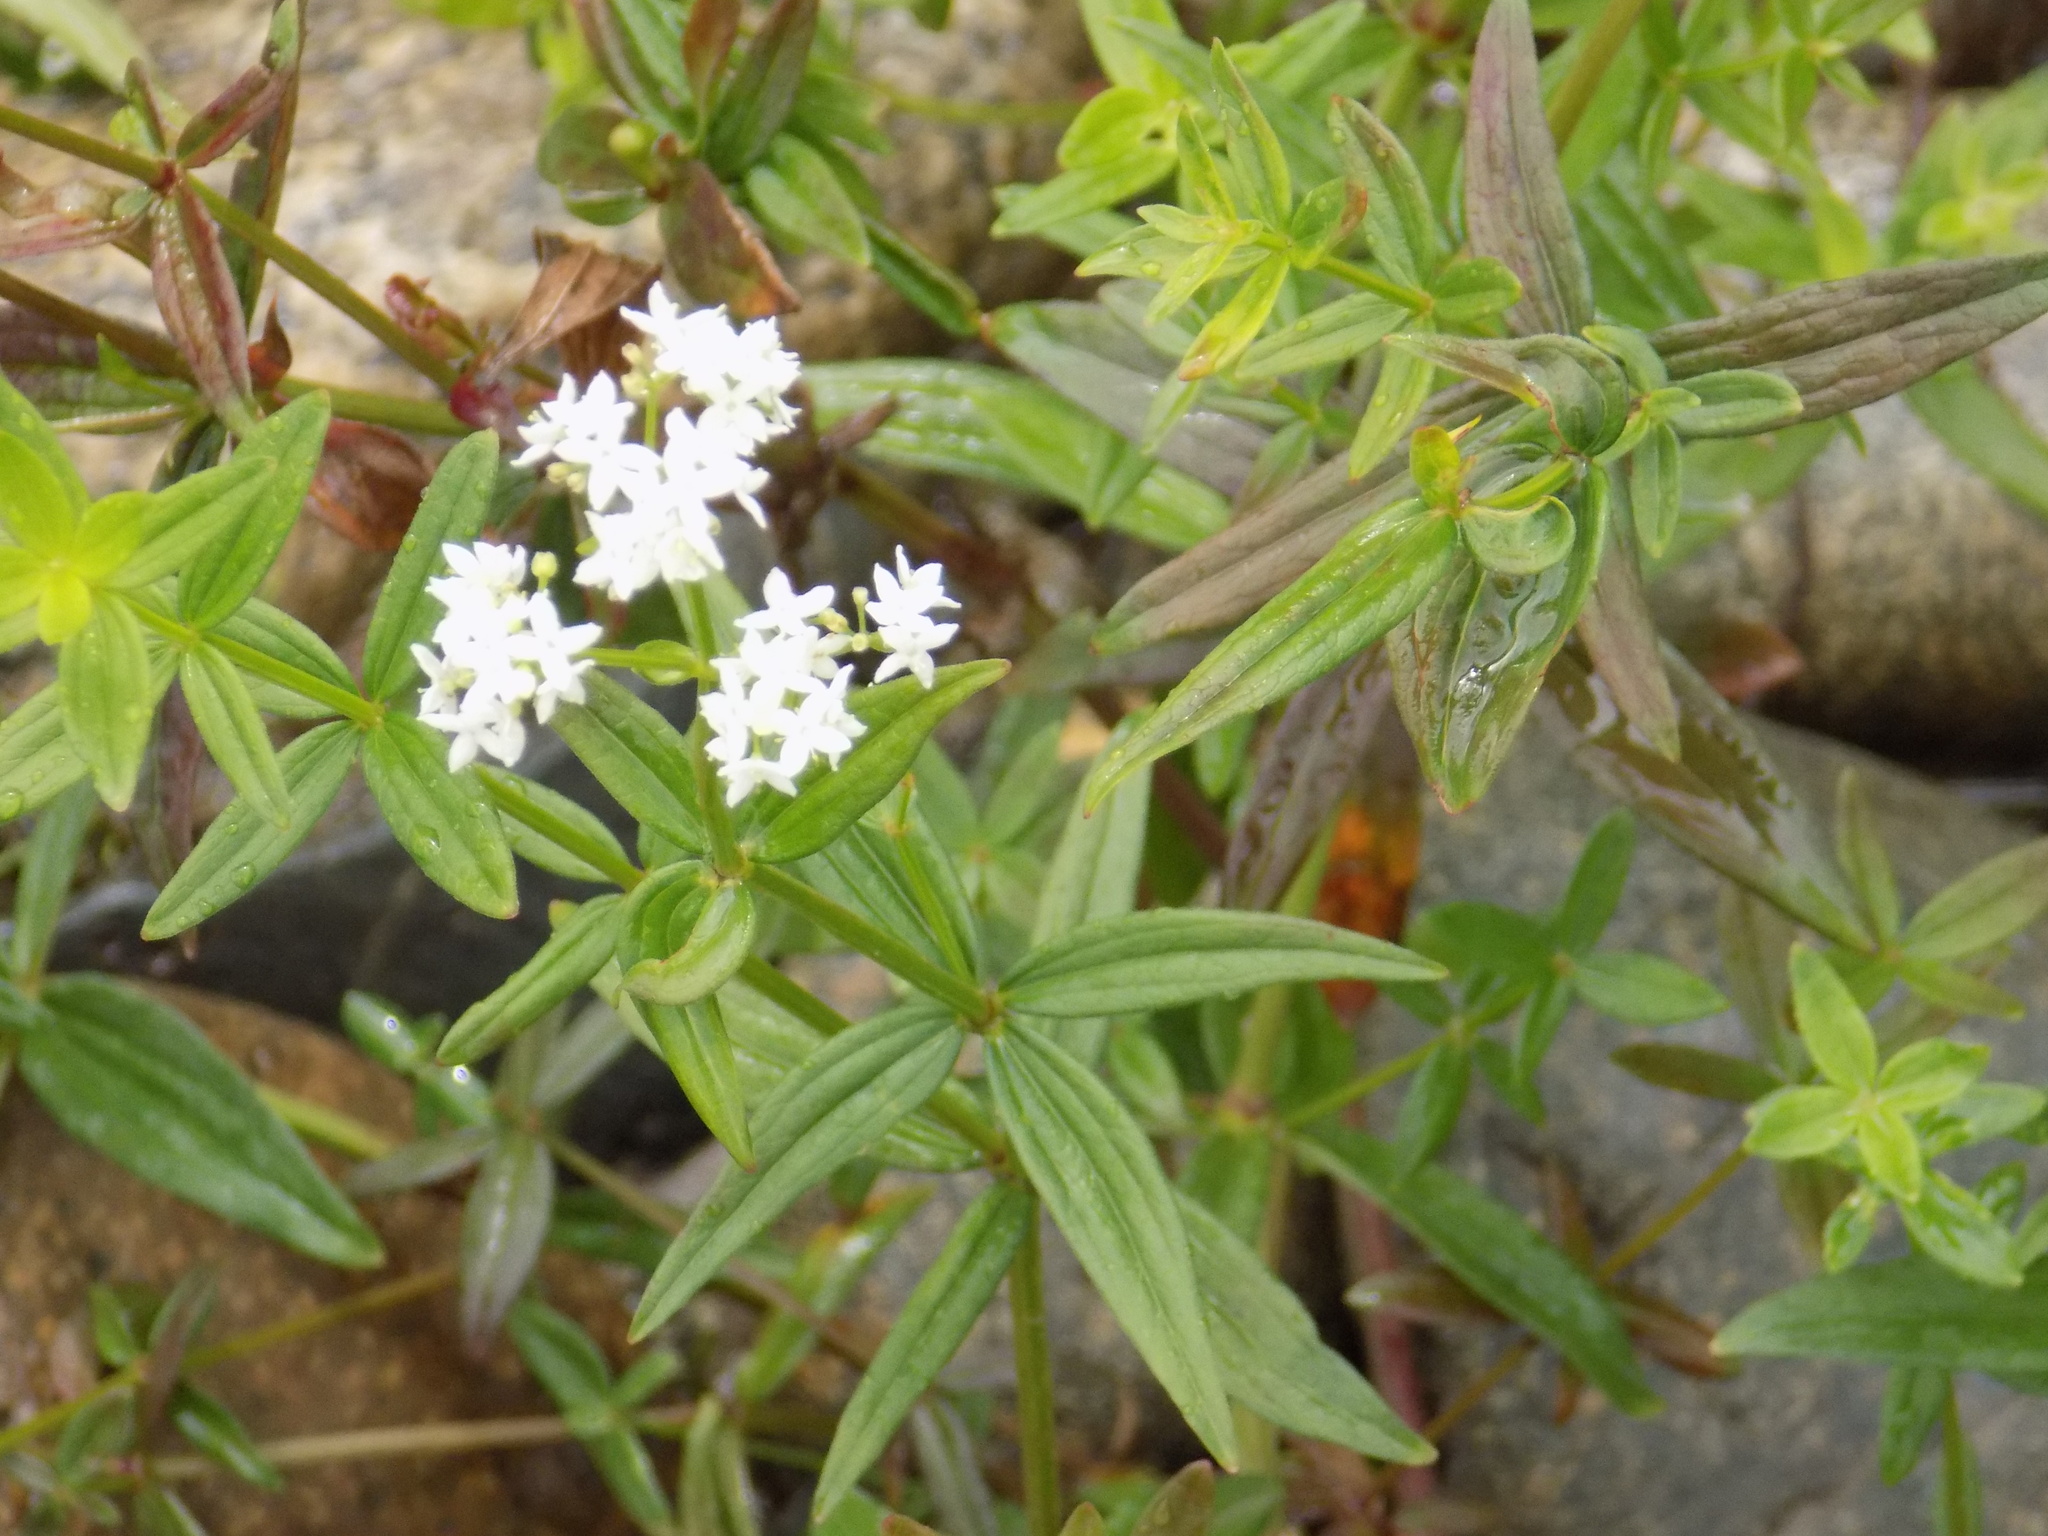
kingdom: Plantae
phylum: Tracheophyta
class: Magnoliopsida
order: Gentianales
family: Rubiaceae
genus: Galium
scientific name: Galium boreale
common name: Northern bedstraw
